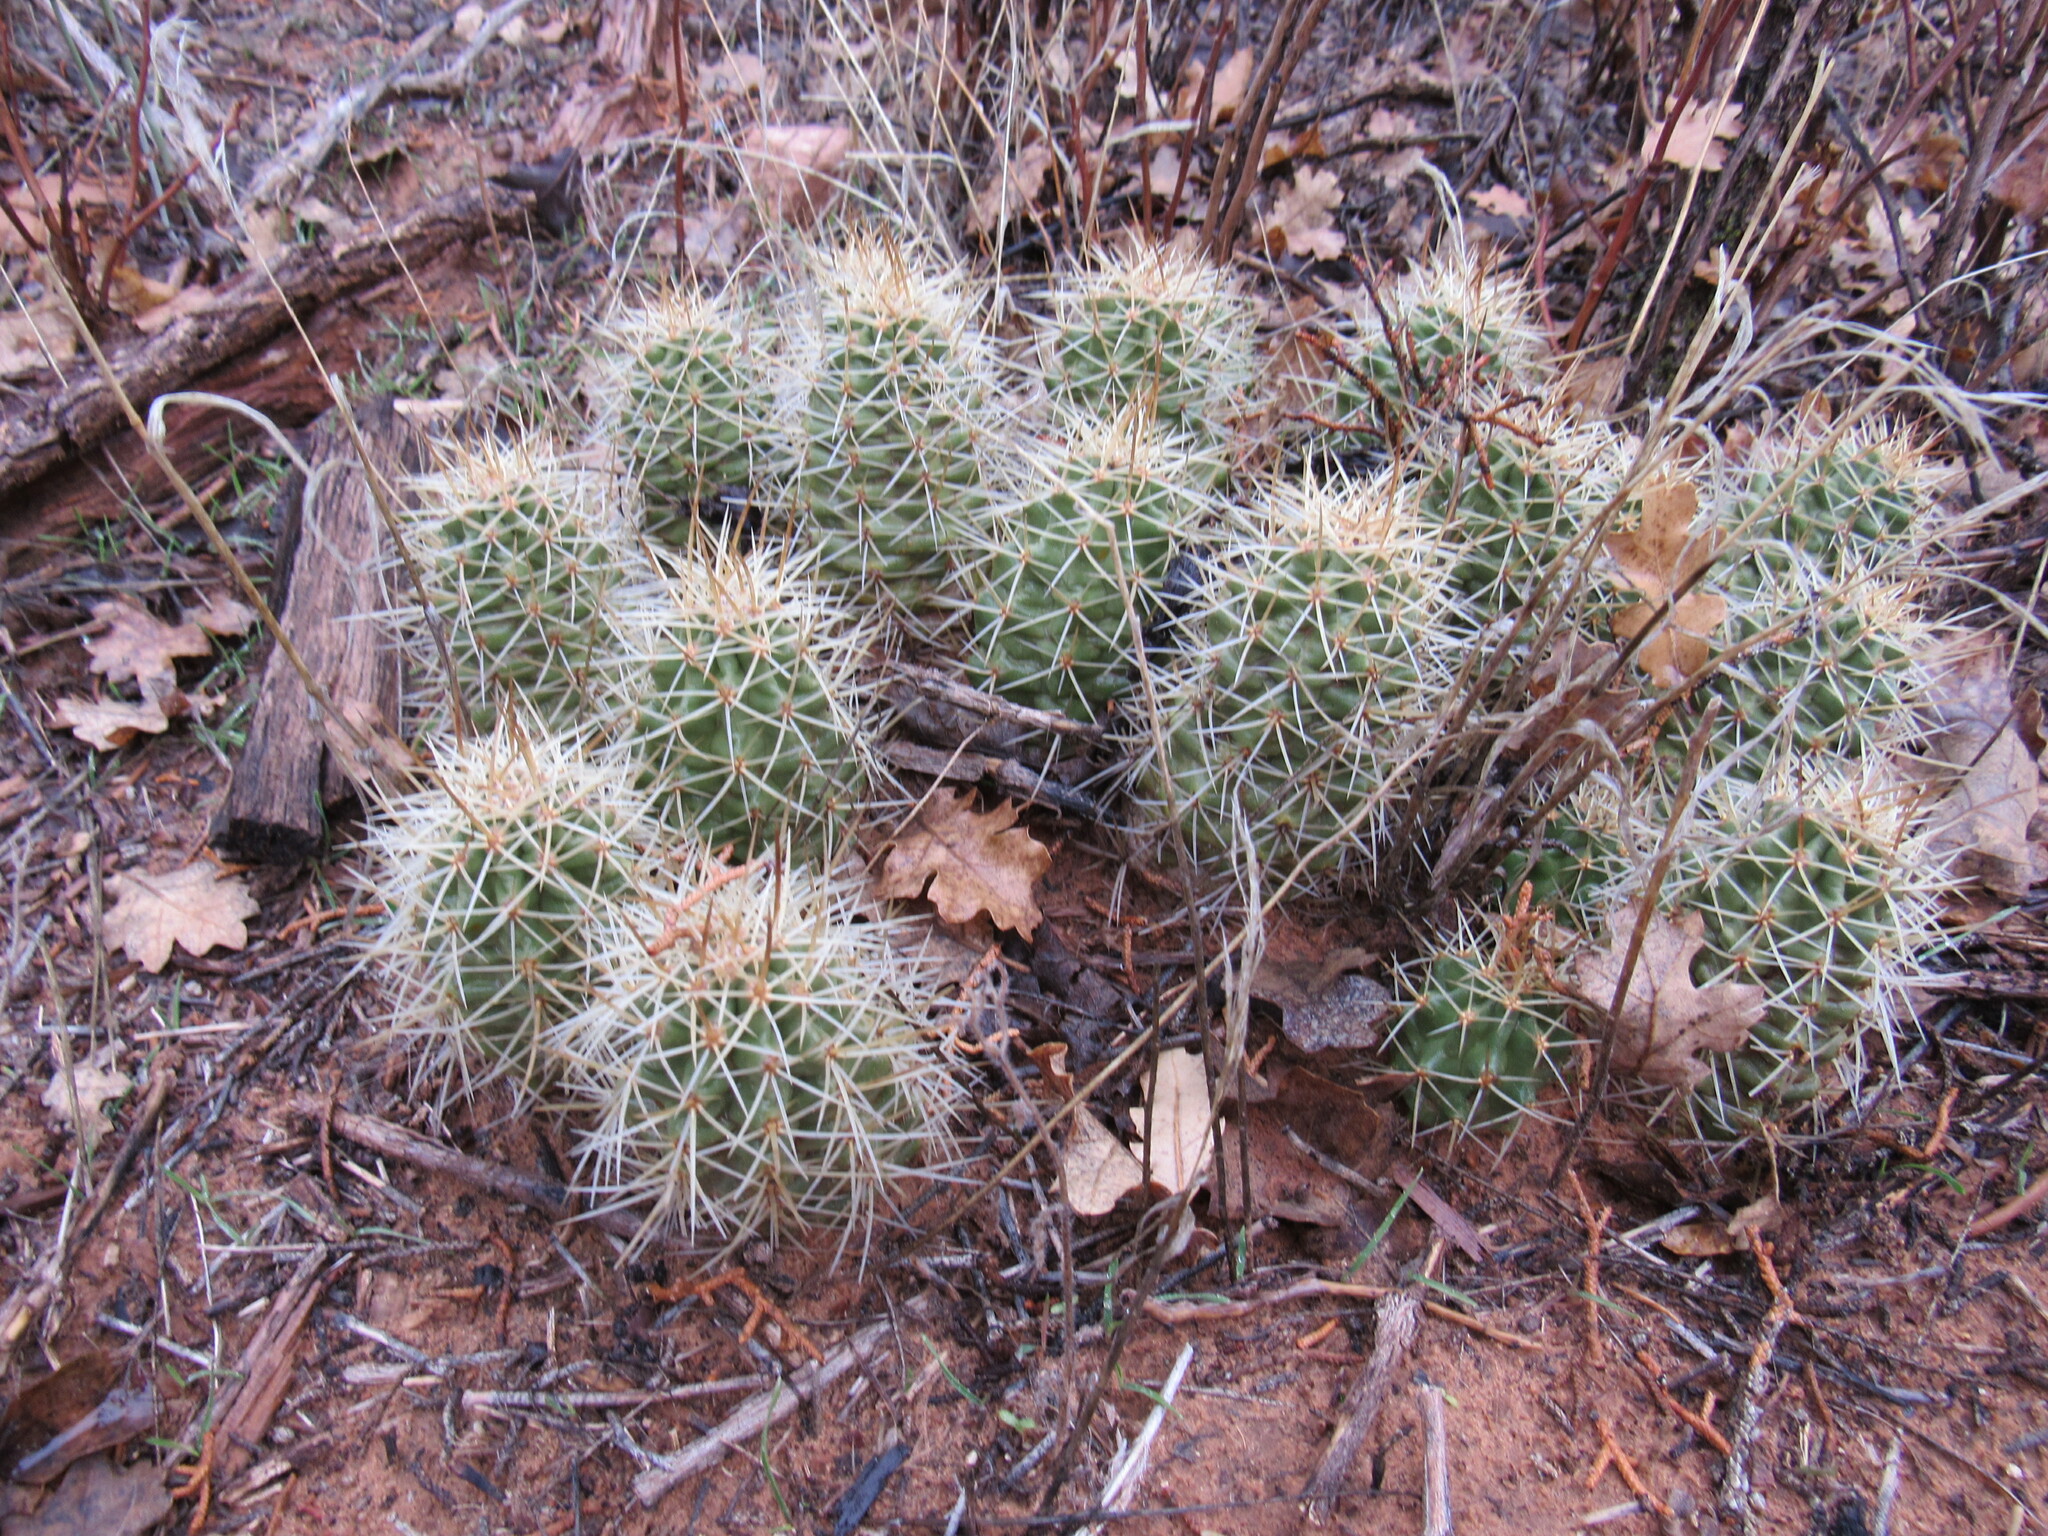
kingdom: Plantae
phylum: Tracheophyta
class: Magnoliopsida
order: Caryophyllales
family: Cactaceae
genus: Echinocereus
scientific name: Echinocereus triglochidiatus
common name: Claretcup hedgehog
